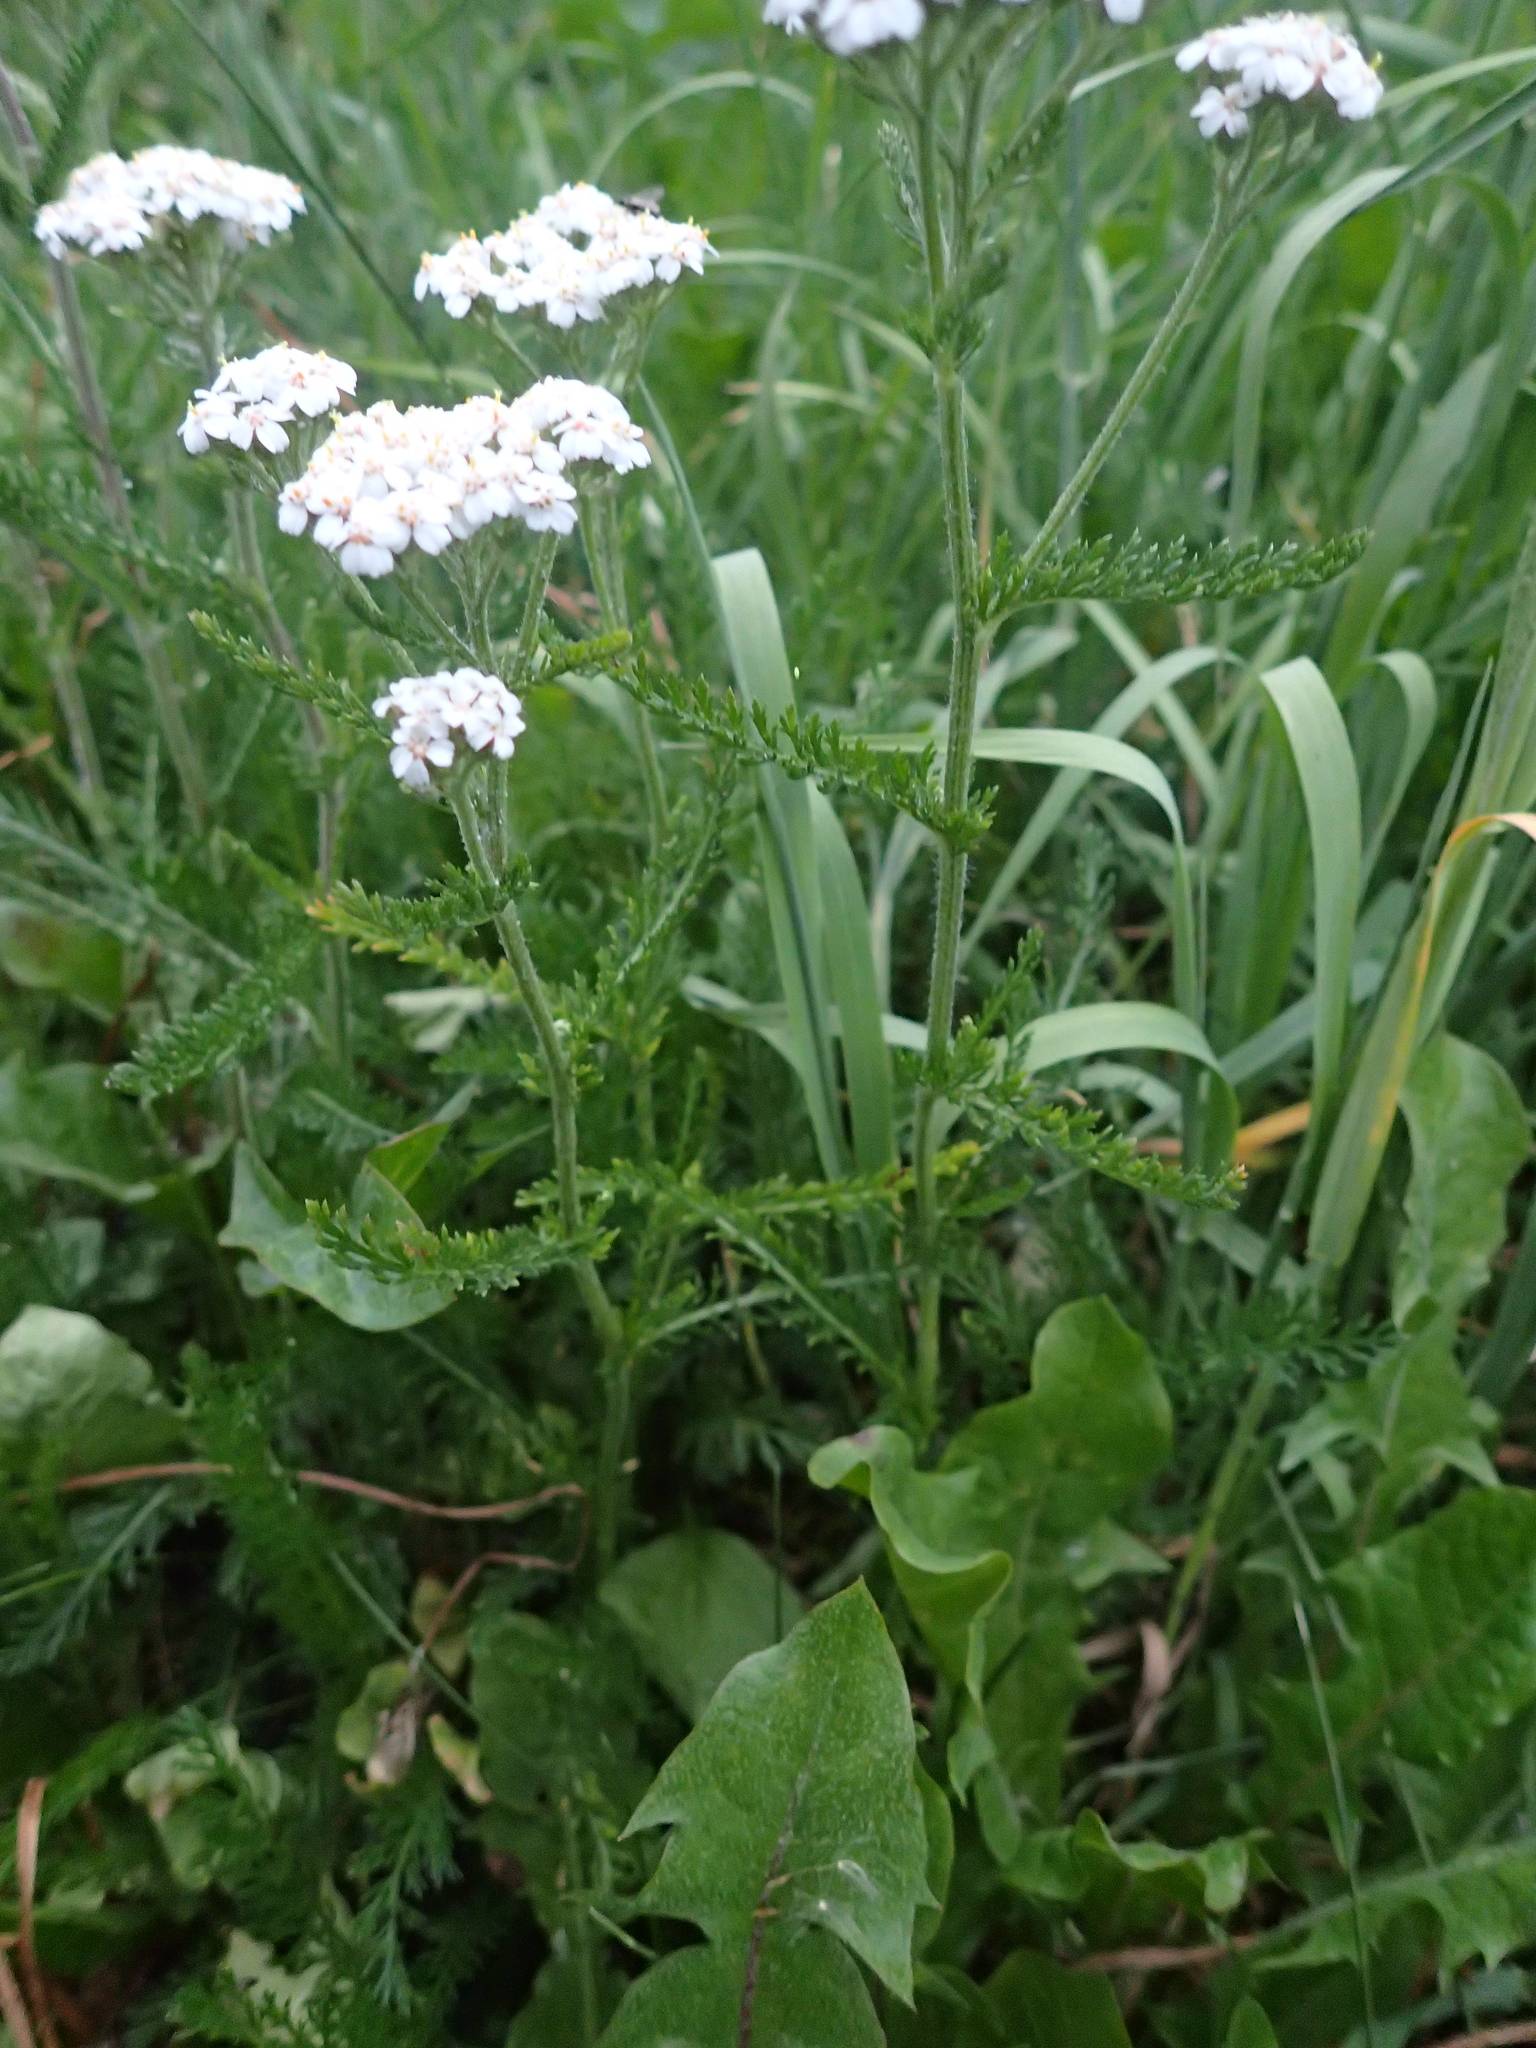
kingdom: Plantae
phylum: Tracheophyta
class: Magnoliopsida
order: Asterales
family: Asteraceae
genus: Achillea
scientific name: Achillea millefolium
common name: Yarrow
